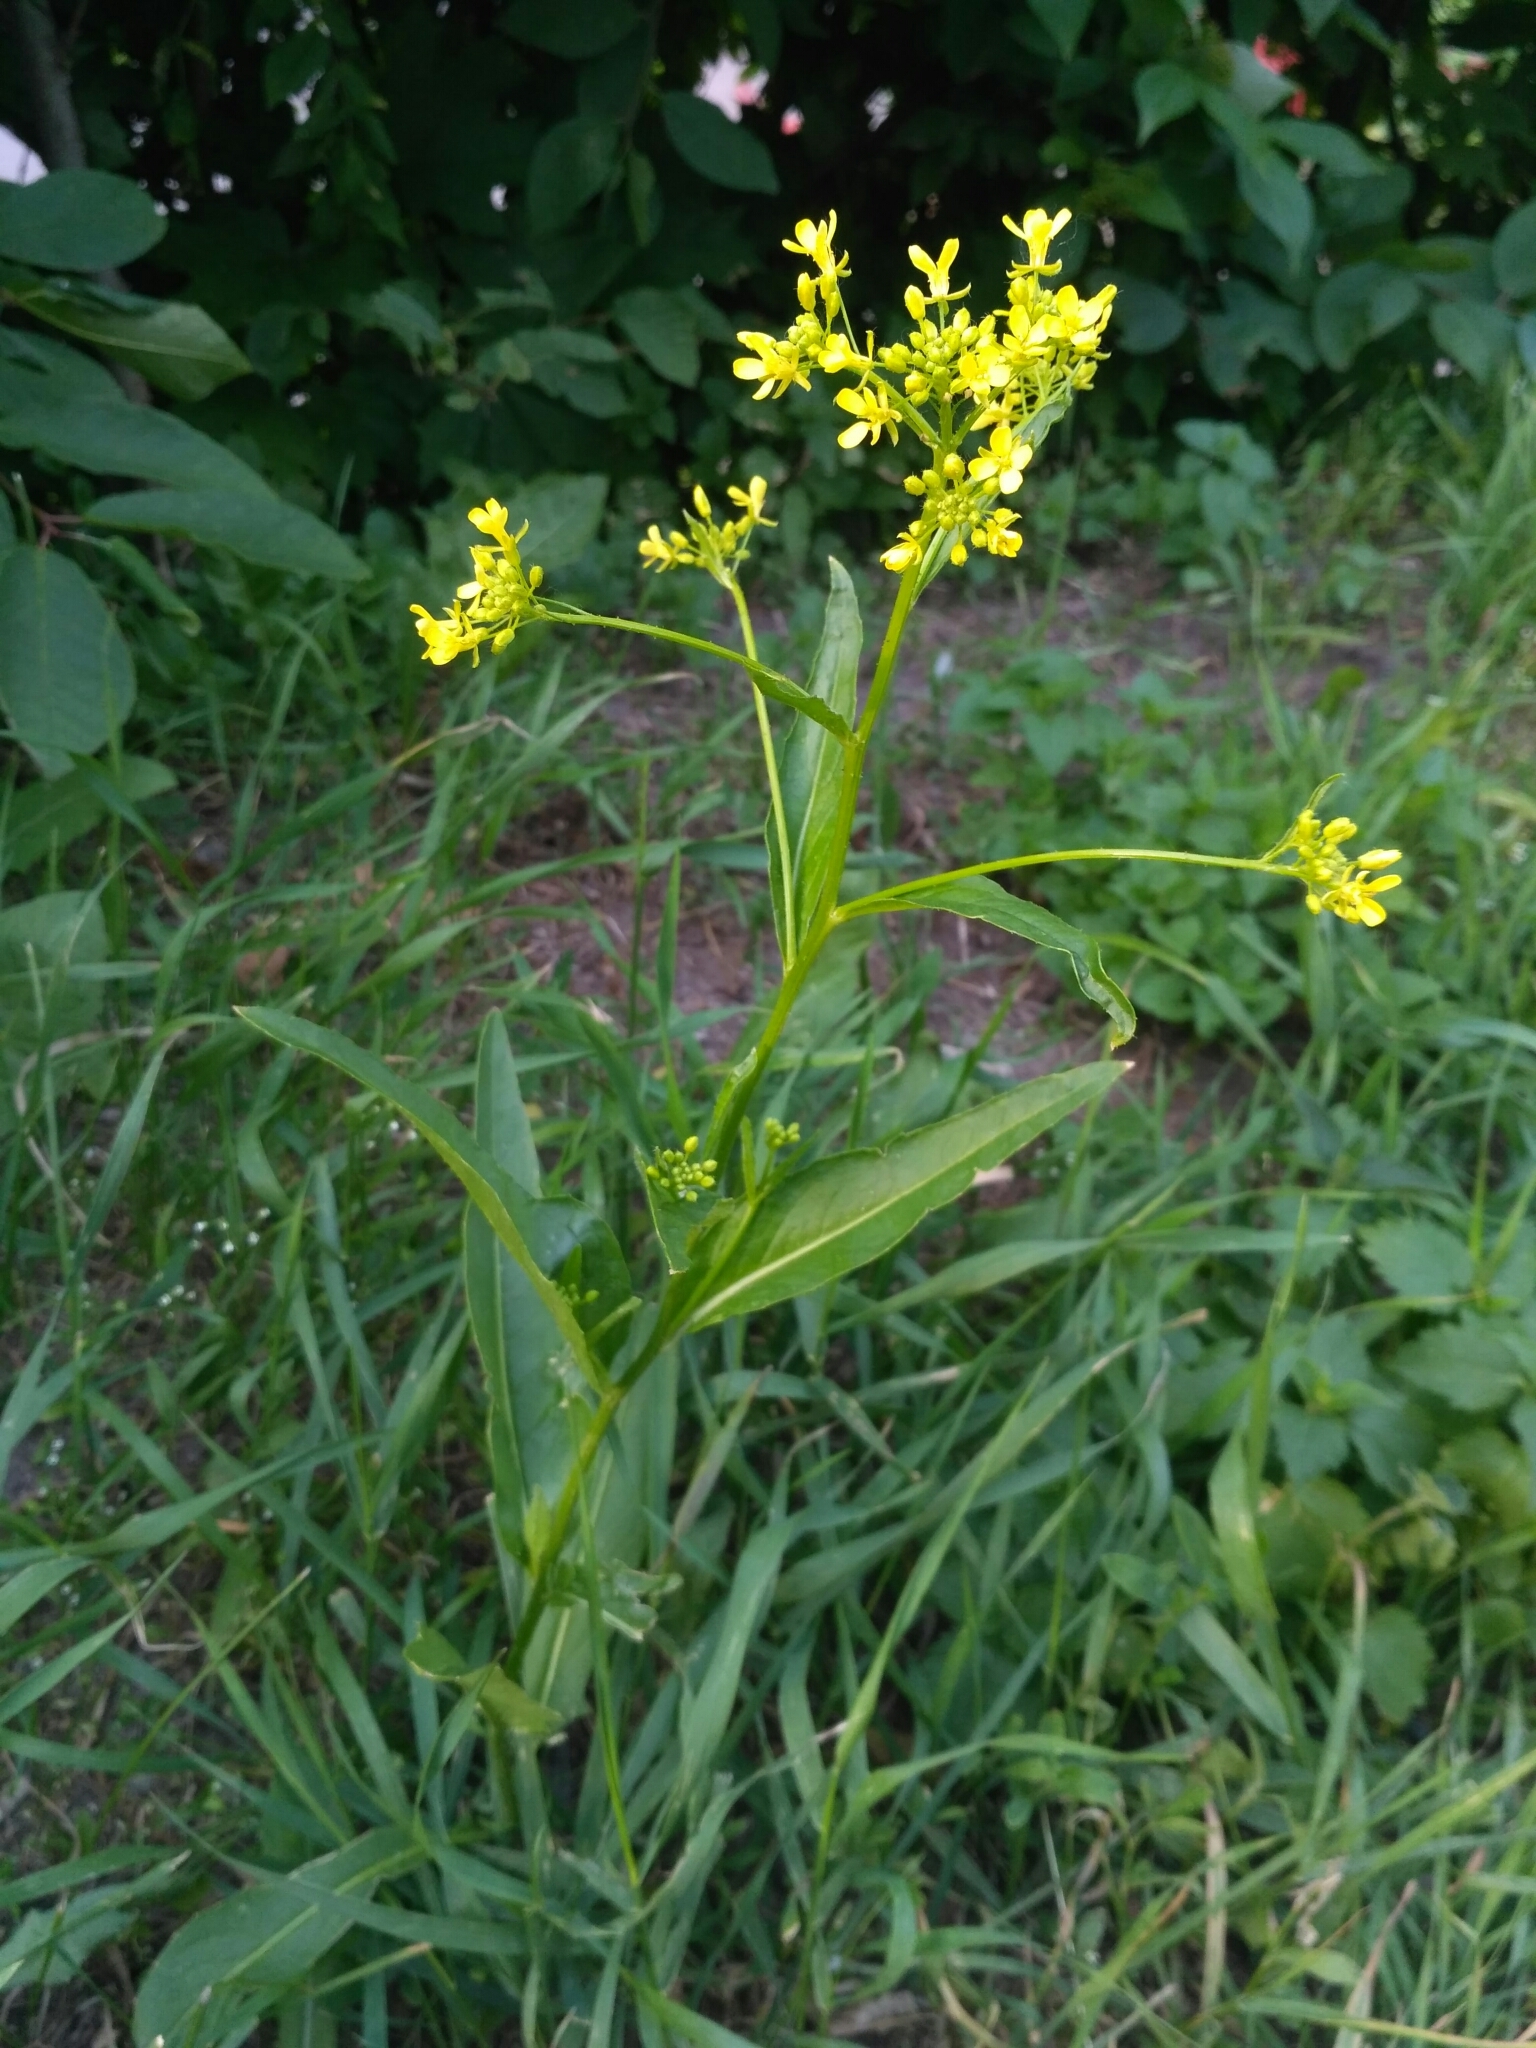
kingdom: Plantae
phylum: Tracheophyta
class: Magnoliopsida
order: Brassicales
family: Brassicaceae
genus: Bunias
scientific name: Bunias orientalis
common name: Warty-cabbage
